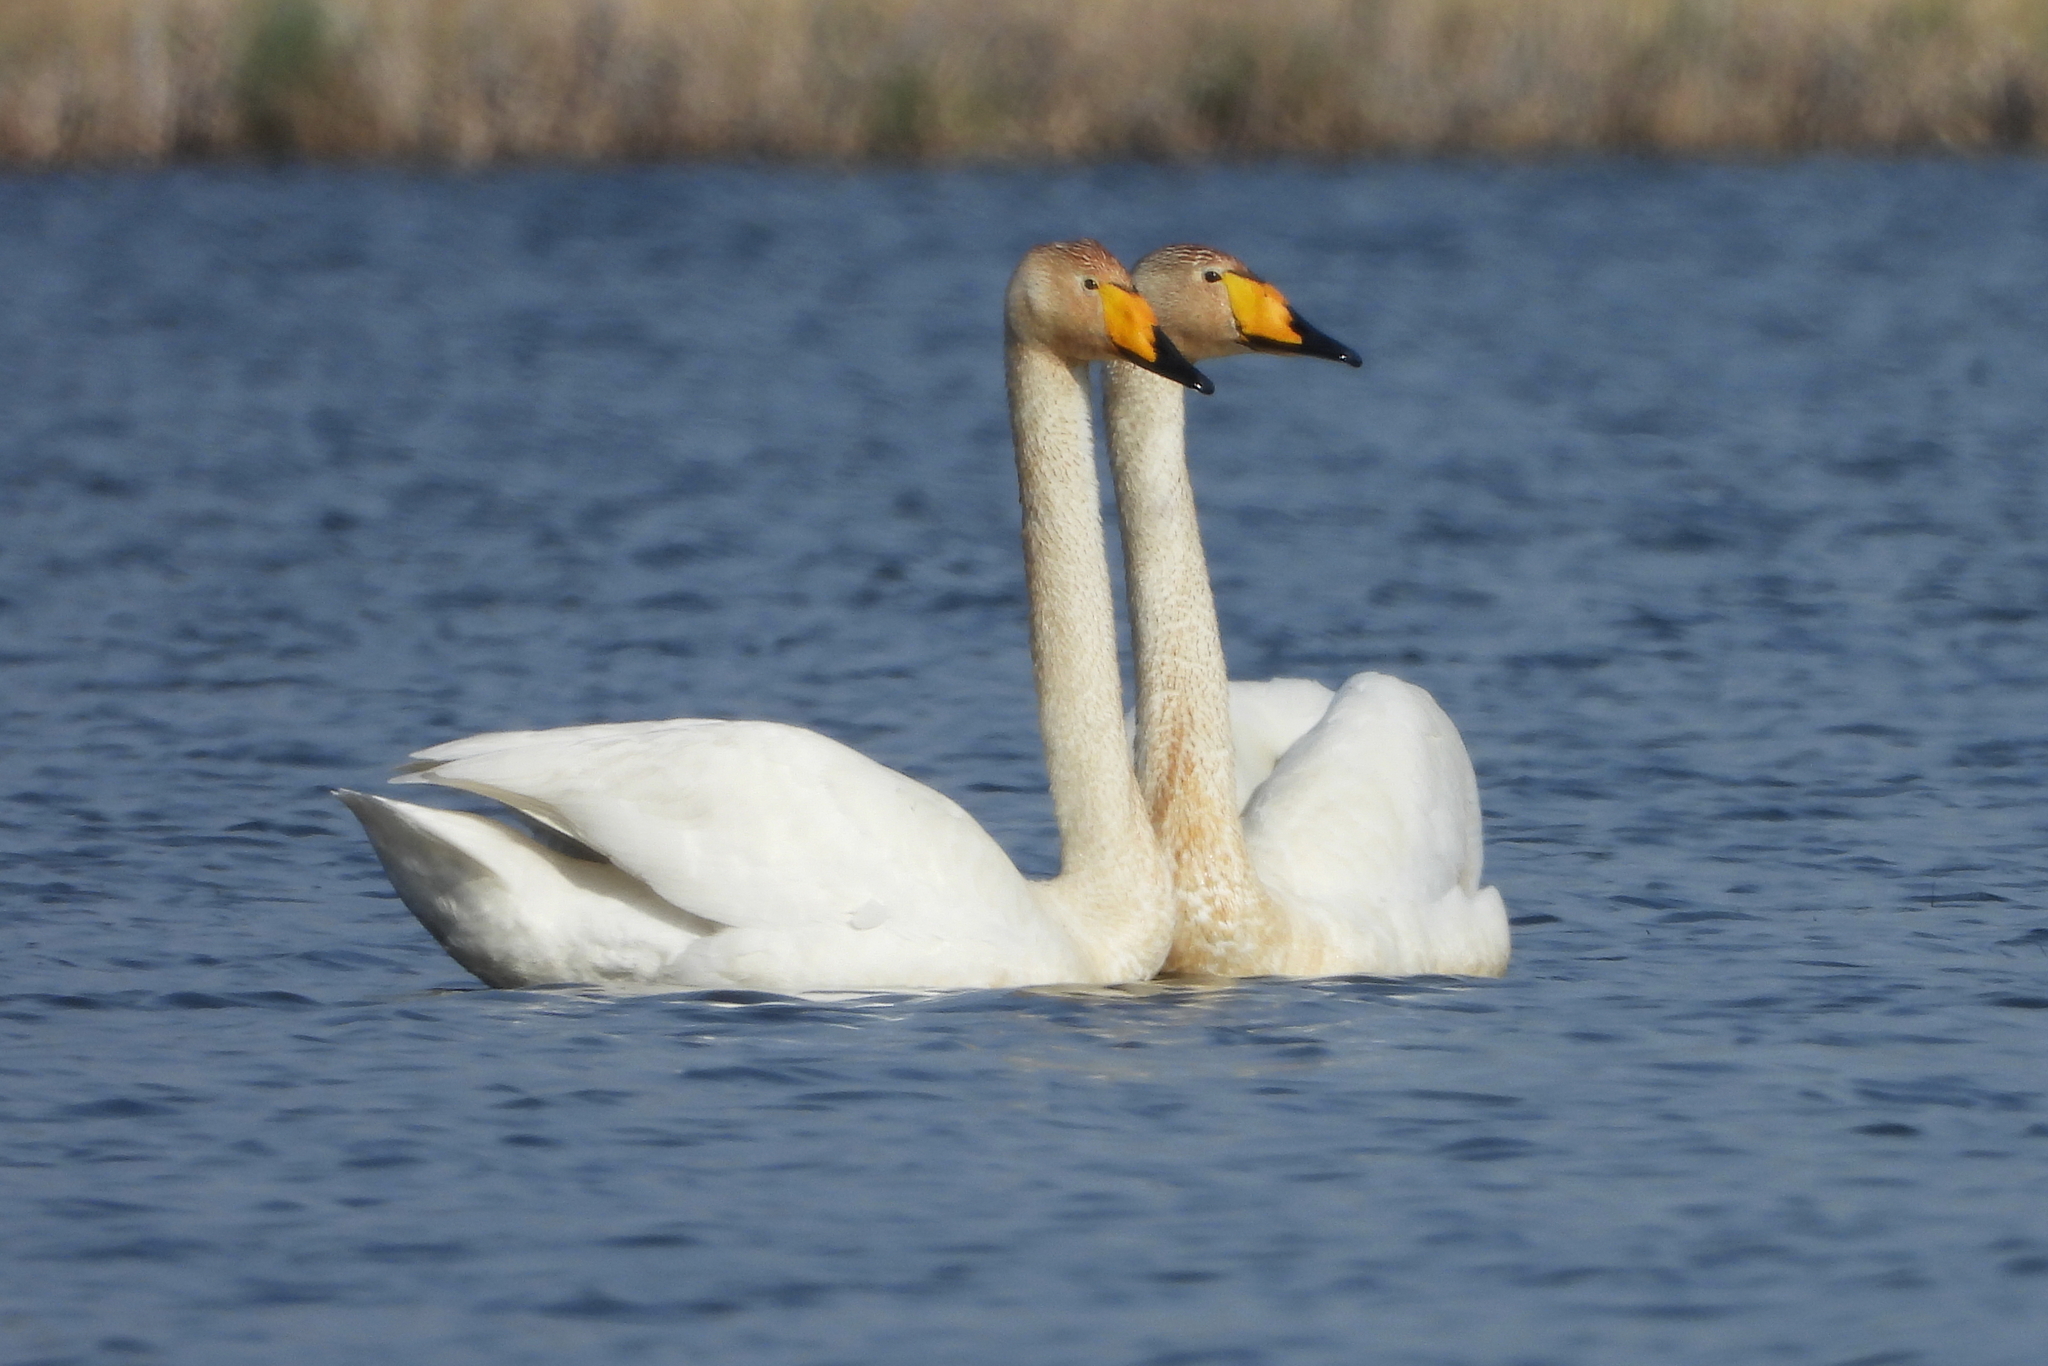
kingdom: Animalia
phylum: Chordata
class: Aves
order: Anseriformes
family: Anatidae
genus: Cygnus
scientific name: Cygnus cygnus
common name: Whooper swan
